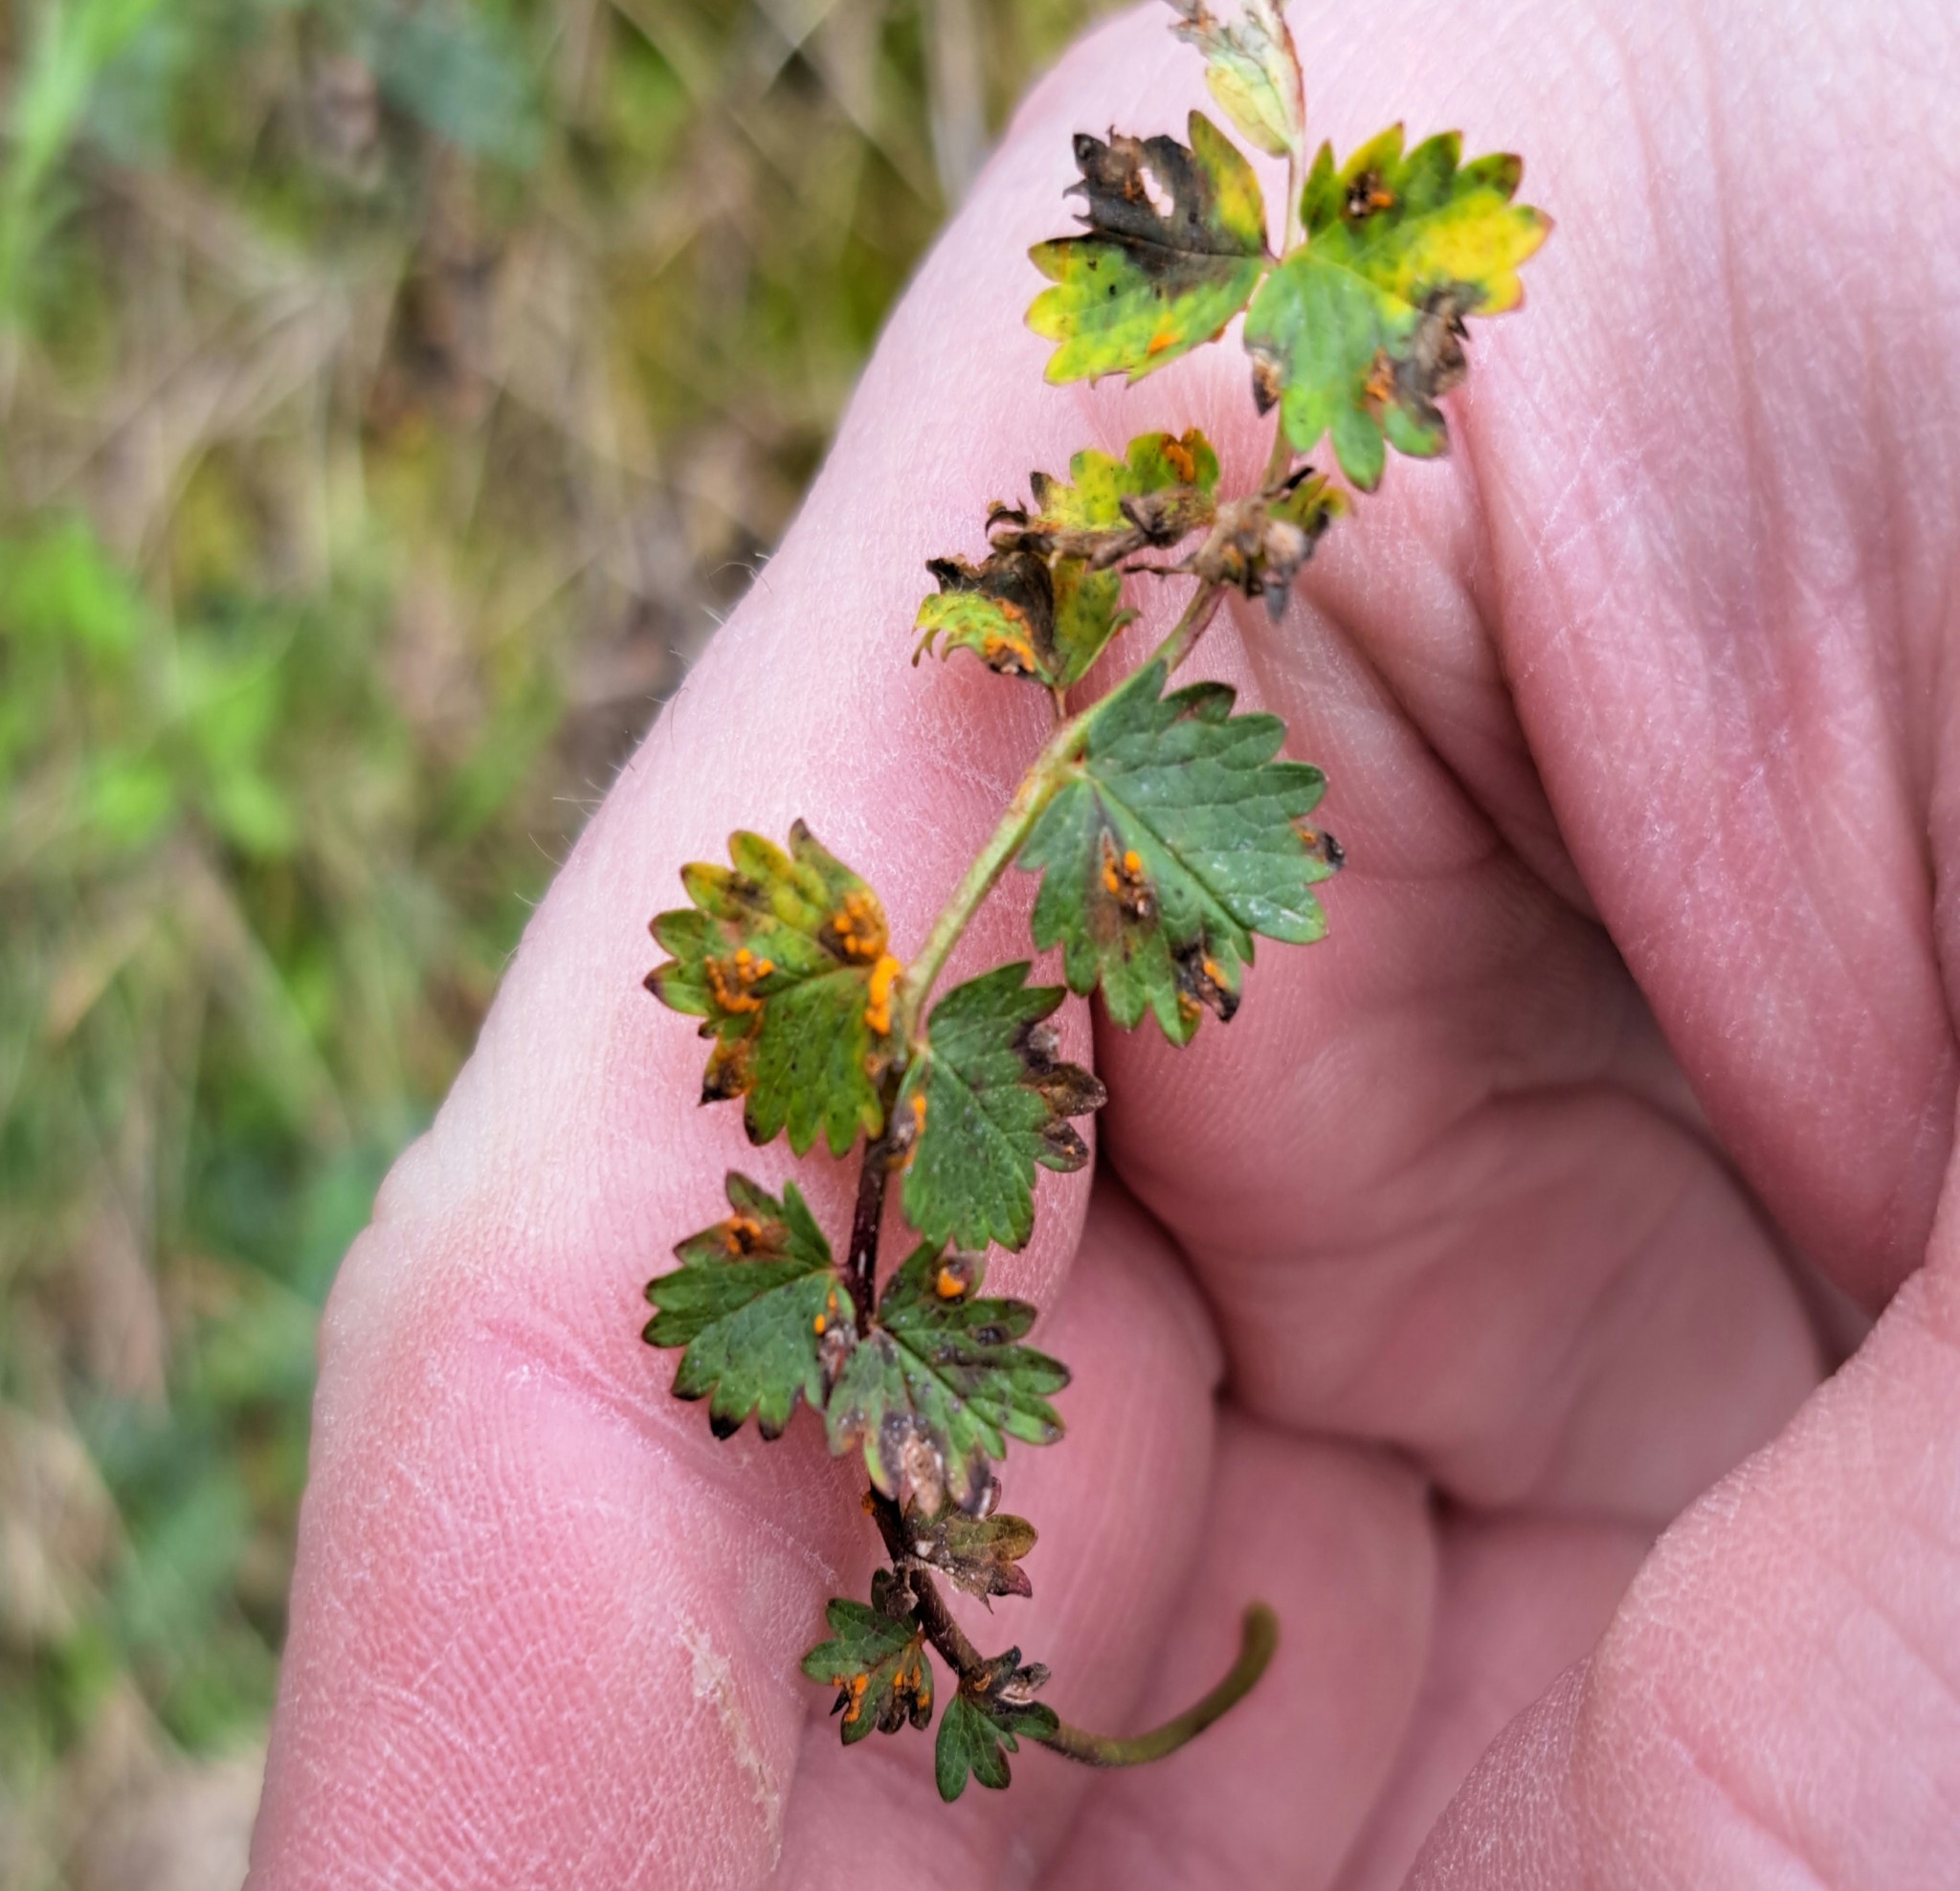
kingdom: Fungi
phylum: Basidiomycota
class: Pucciniomycetes
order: Pucciniales
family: Phragmidiaceae
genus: Phragmidium
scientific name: Phragmidium sanguisorbae
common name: Salad burnet rust
